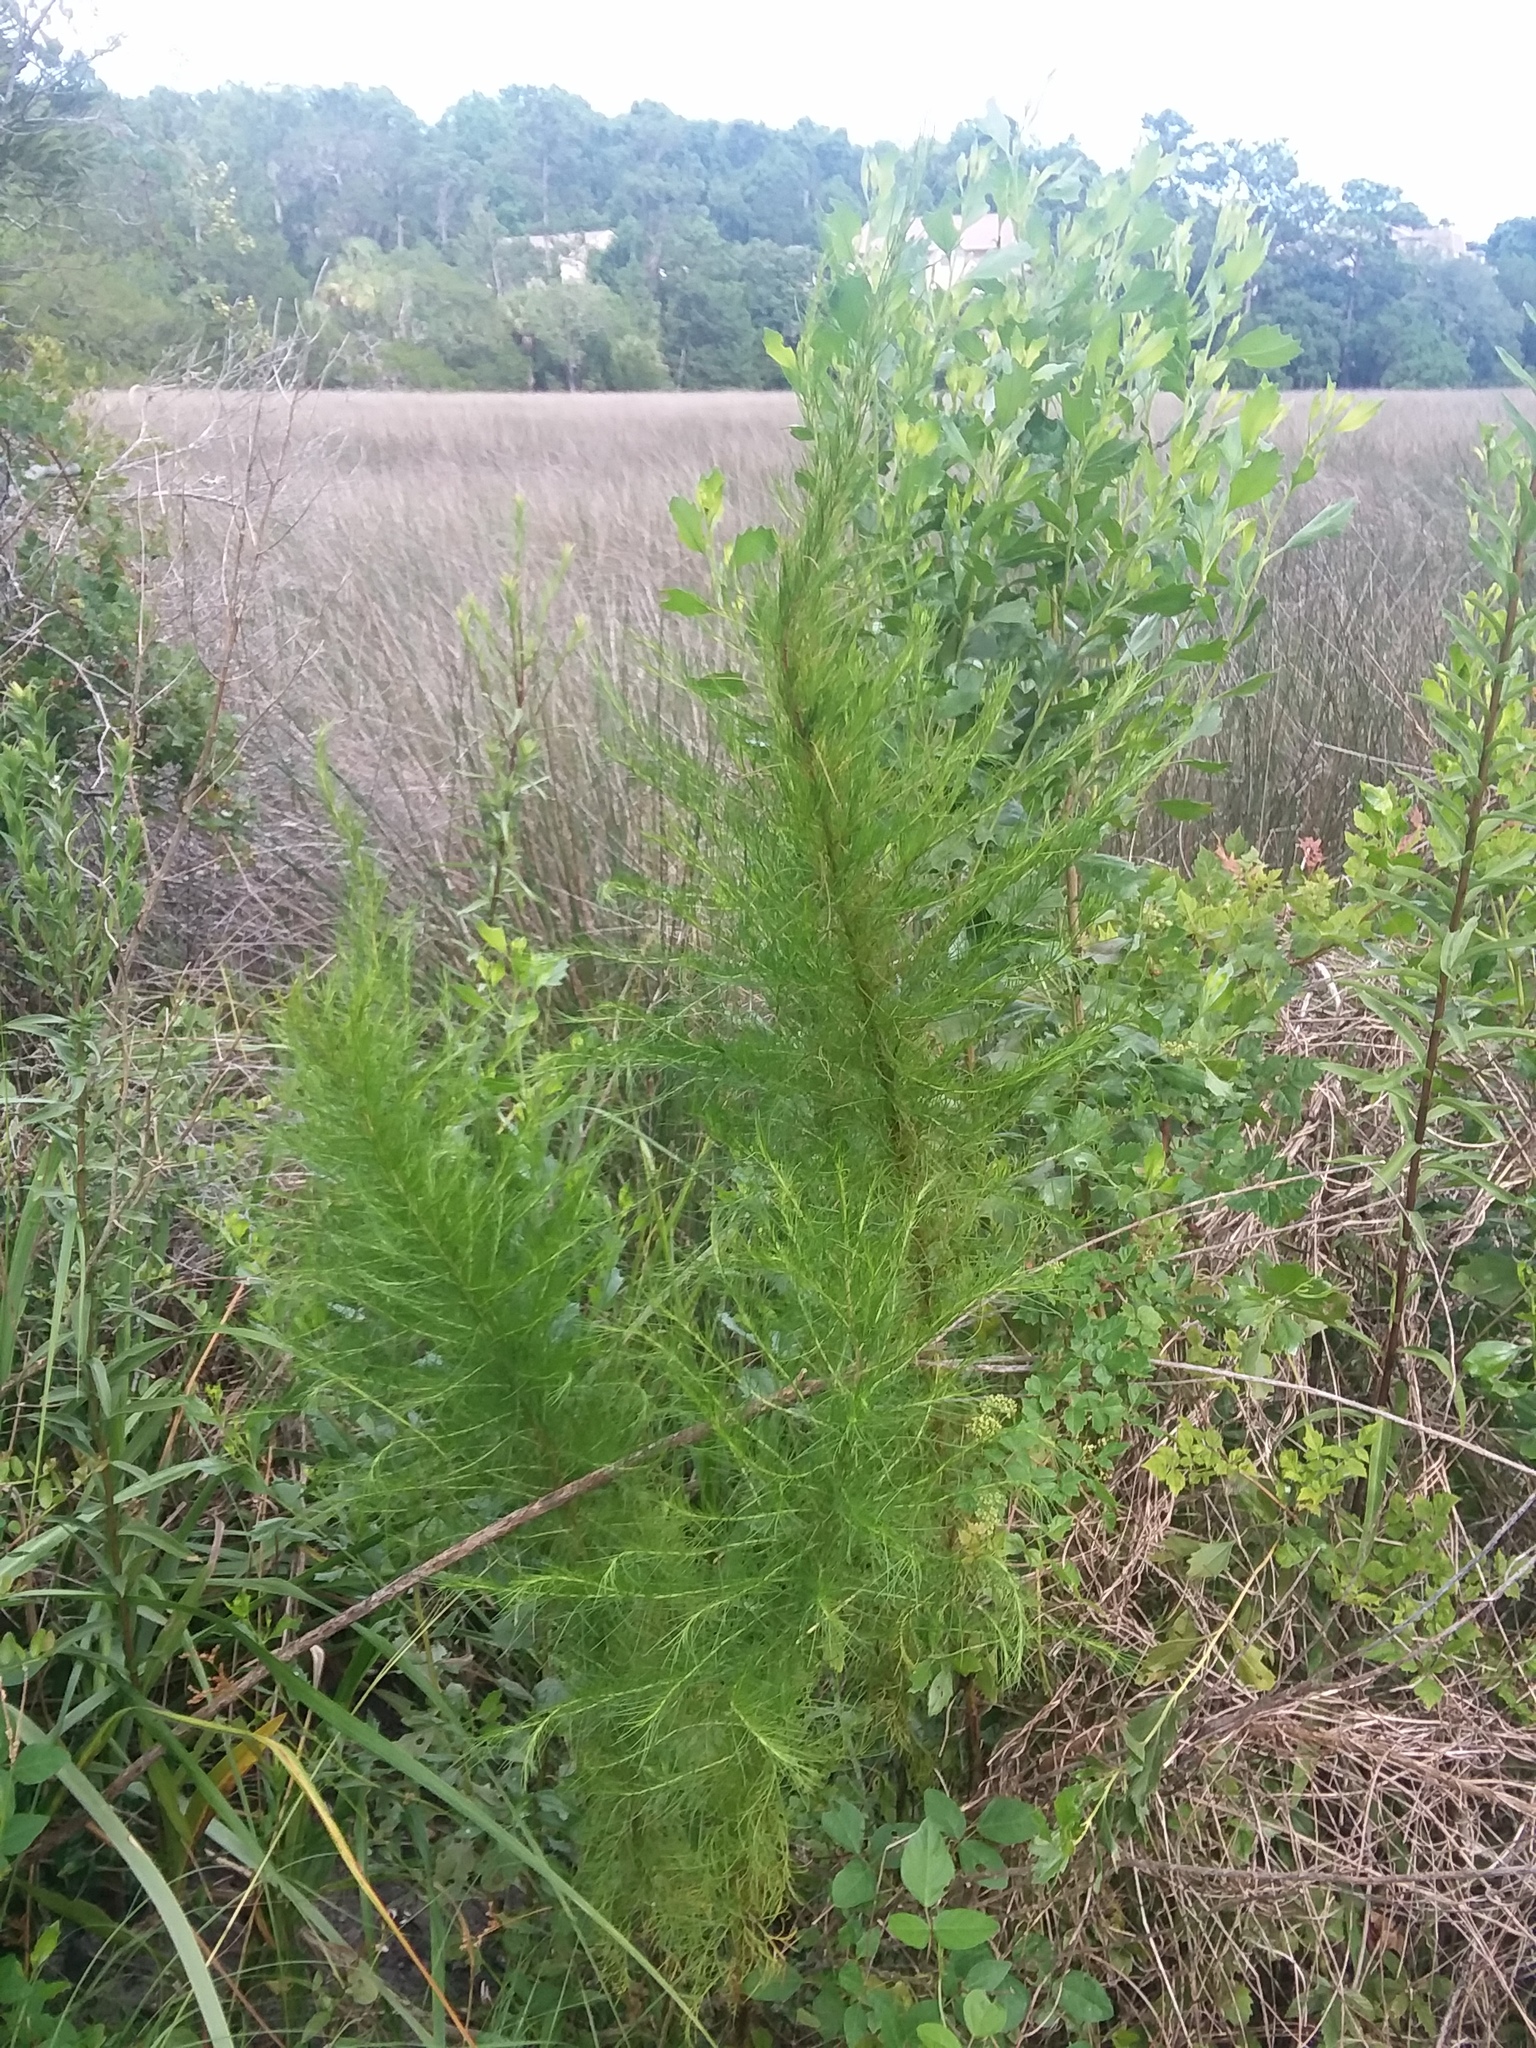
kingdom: Plantae
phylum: Tracheophyta
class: Magnoliopsida
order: Asterales
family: Asteraceae
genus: Eupatorium
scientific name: Eupatorium capillifolium
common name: Dog-fennel
